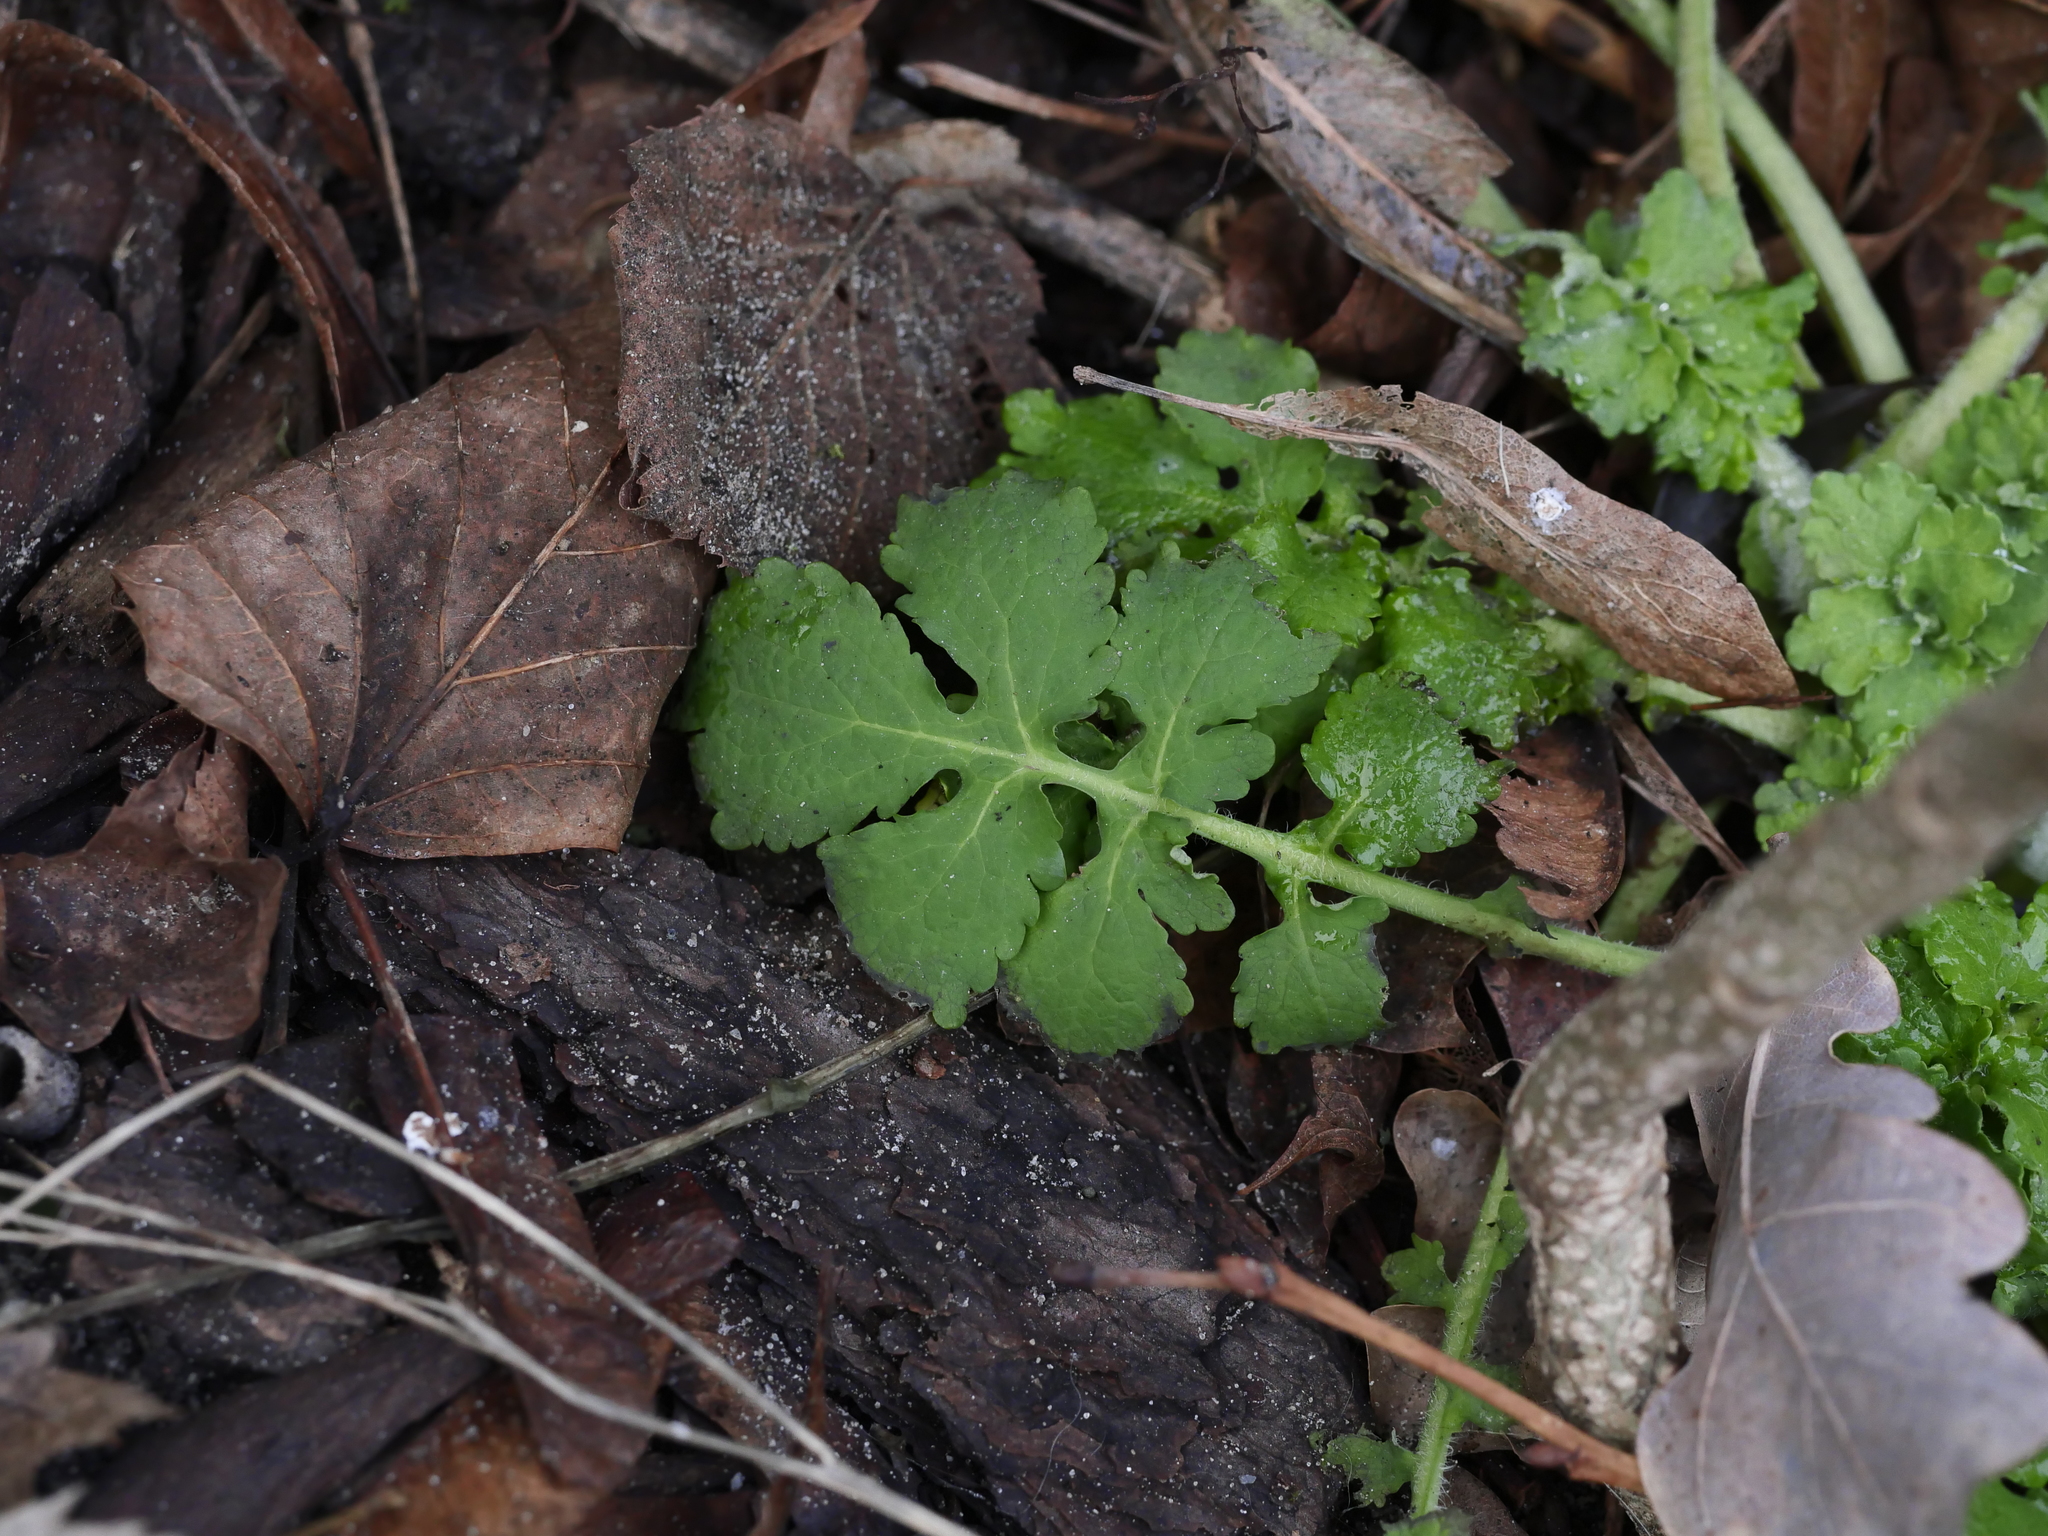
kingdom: Plantae
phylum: Tracheophyta
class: Magnoliopsida
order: Ranunculales
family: Papaveraceae
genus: Chelidonium
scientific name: Chelidonium majus
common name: Greater celandine
